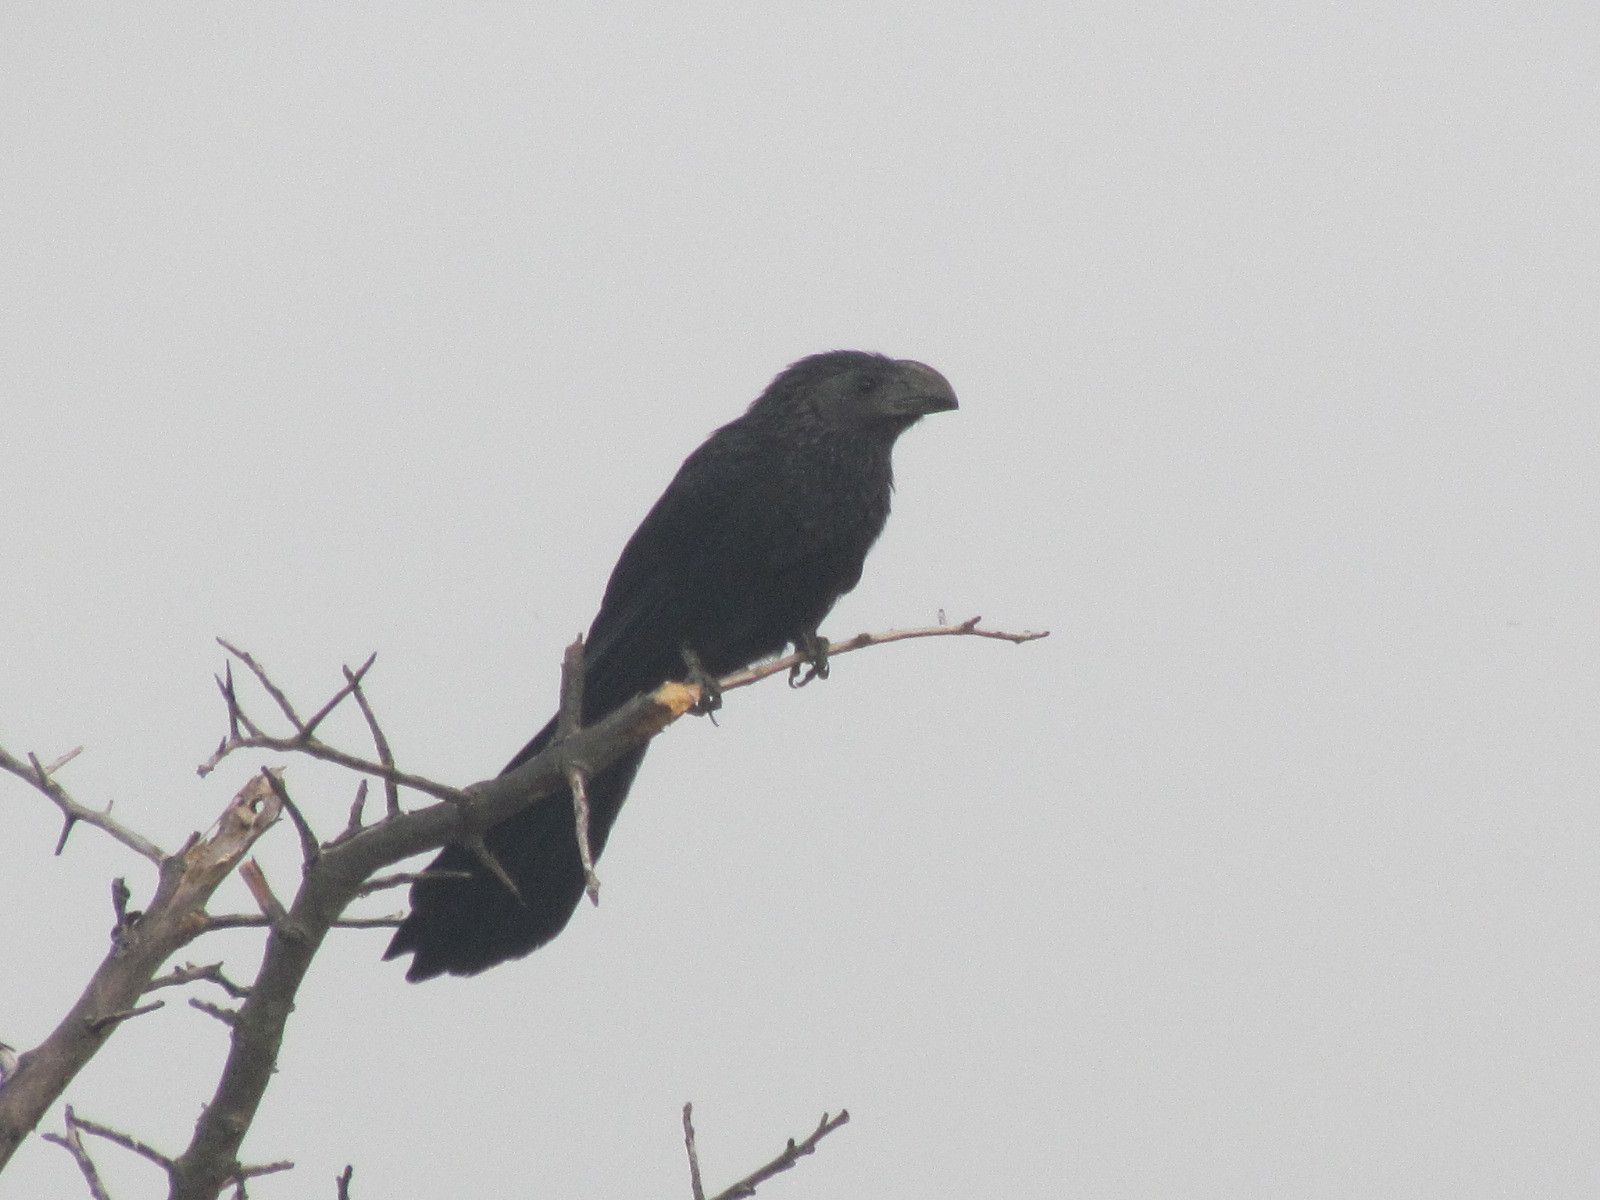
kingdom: Animalia
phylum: Chordata
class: Aves
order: Cuculiformes
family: Cuculidae
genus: Crotophaga
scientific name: Crotophaga sulcirostris
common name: Groove-billed ani
